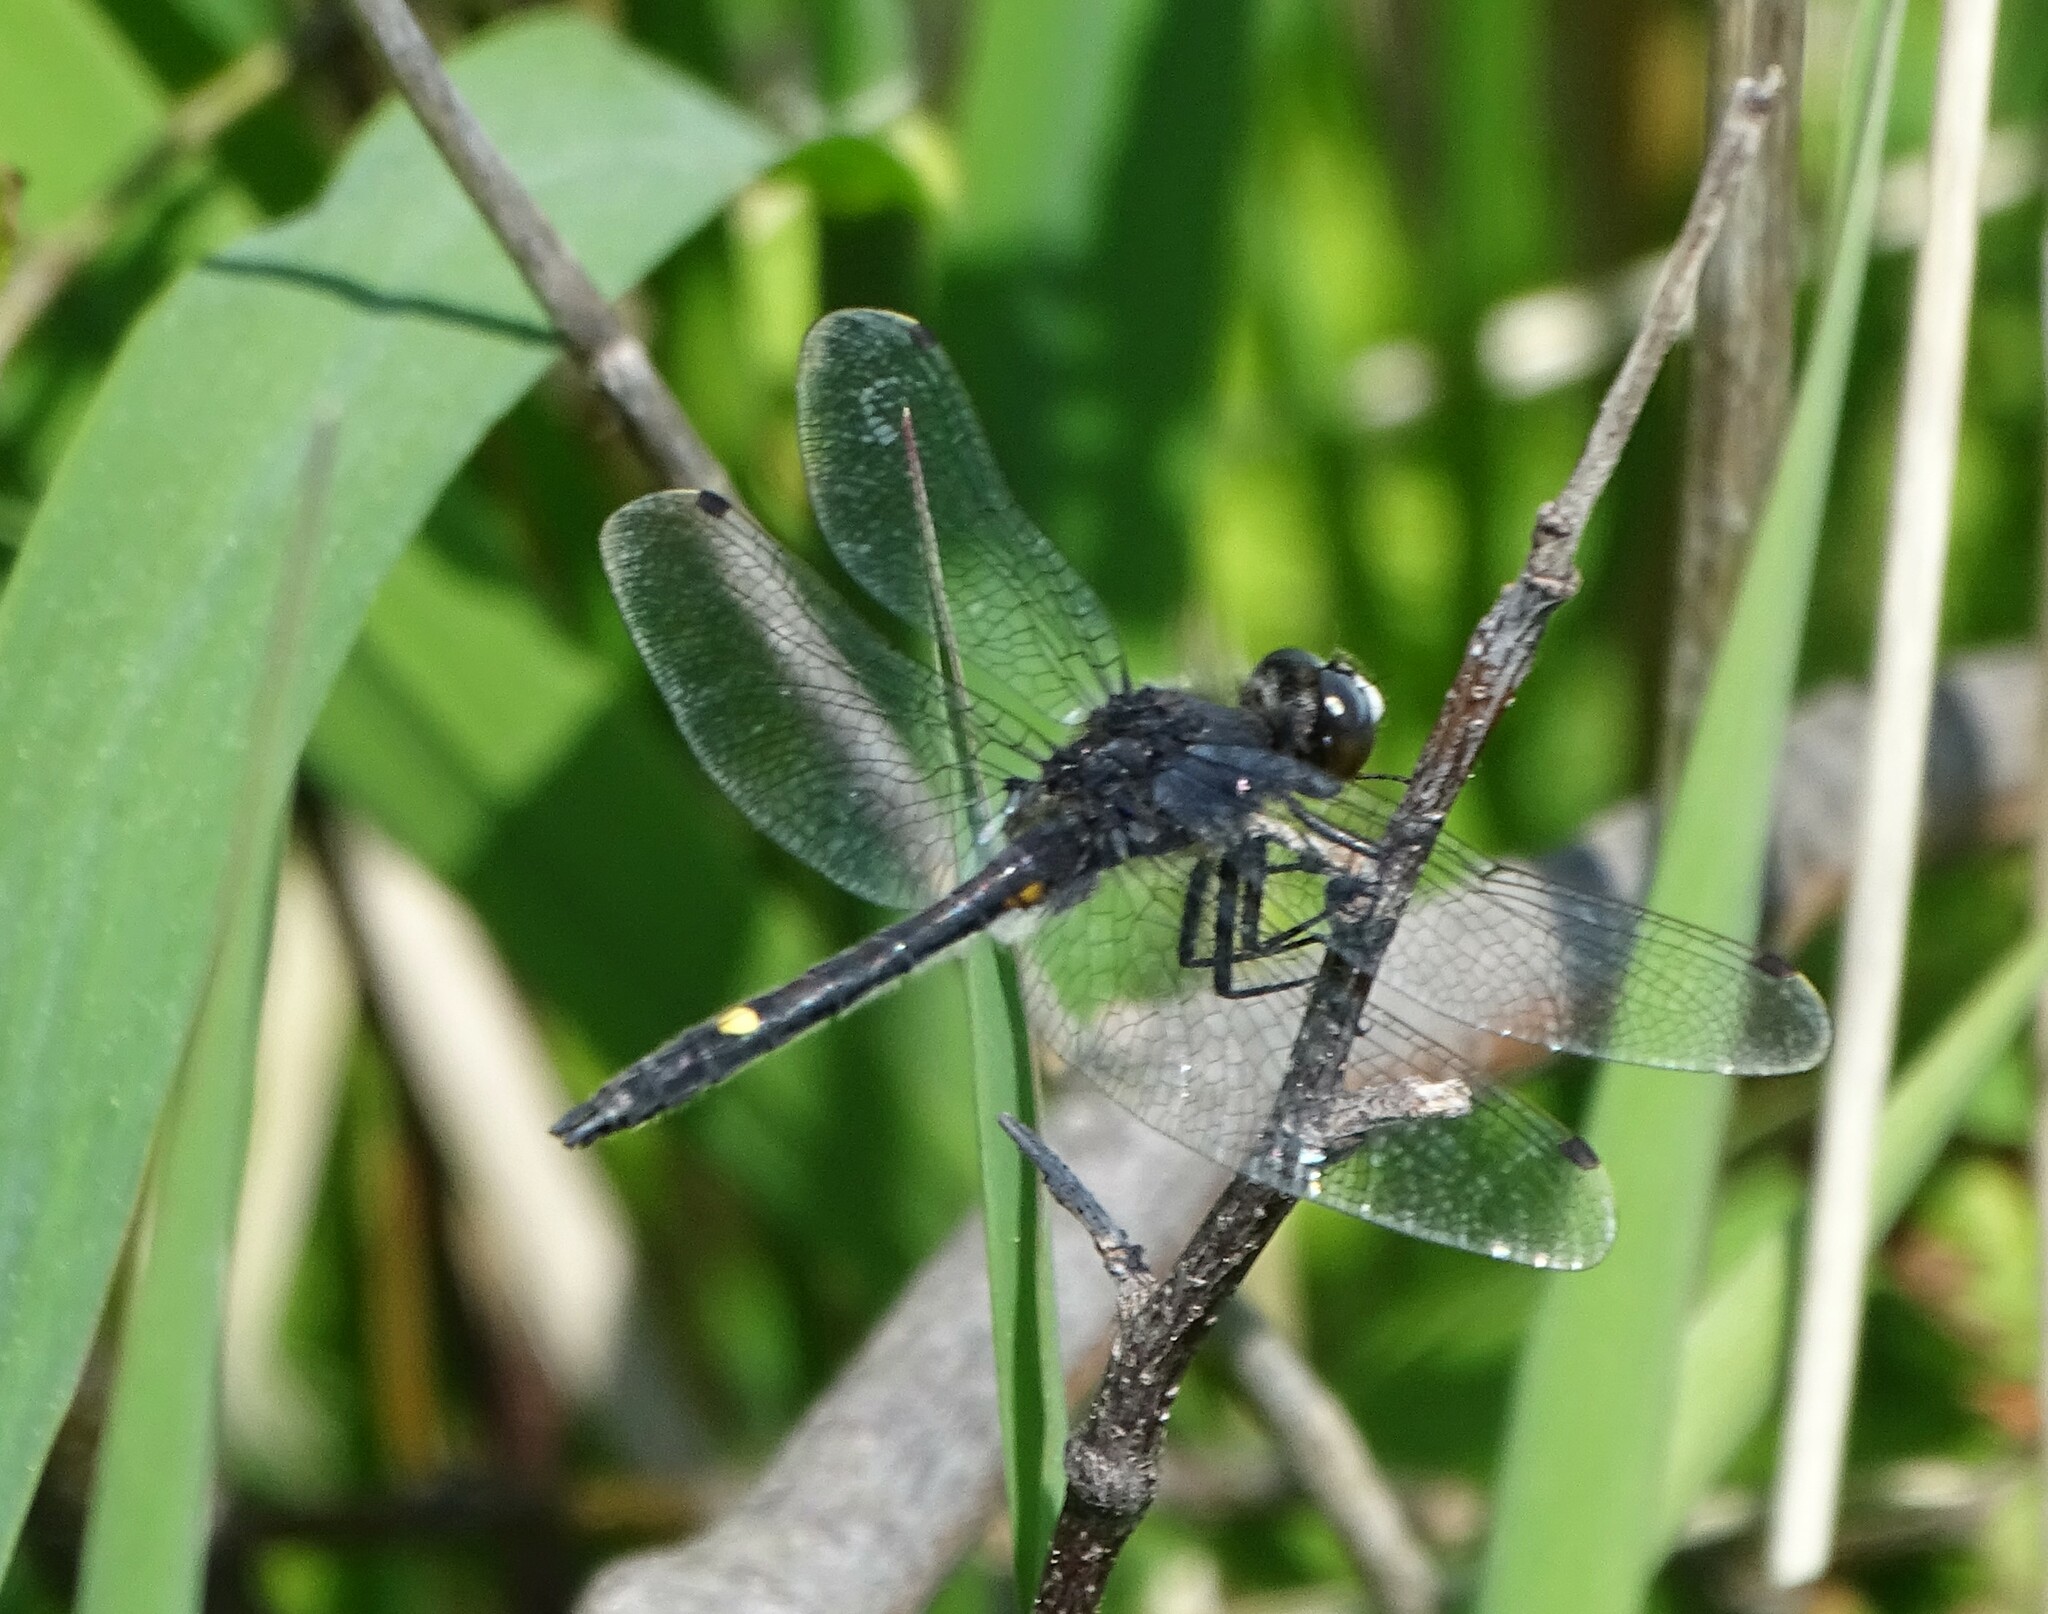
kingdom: Animalia
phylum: Arthropoda
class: Insecta
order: Odonata
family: Libellulidae
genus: Leucorrhinia
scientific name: Leucorrhinia intacta
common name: Dot-tailed whiteface
